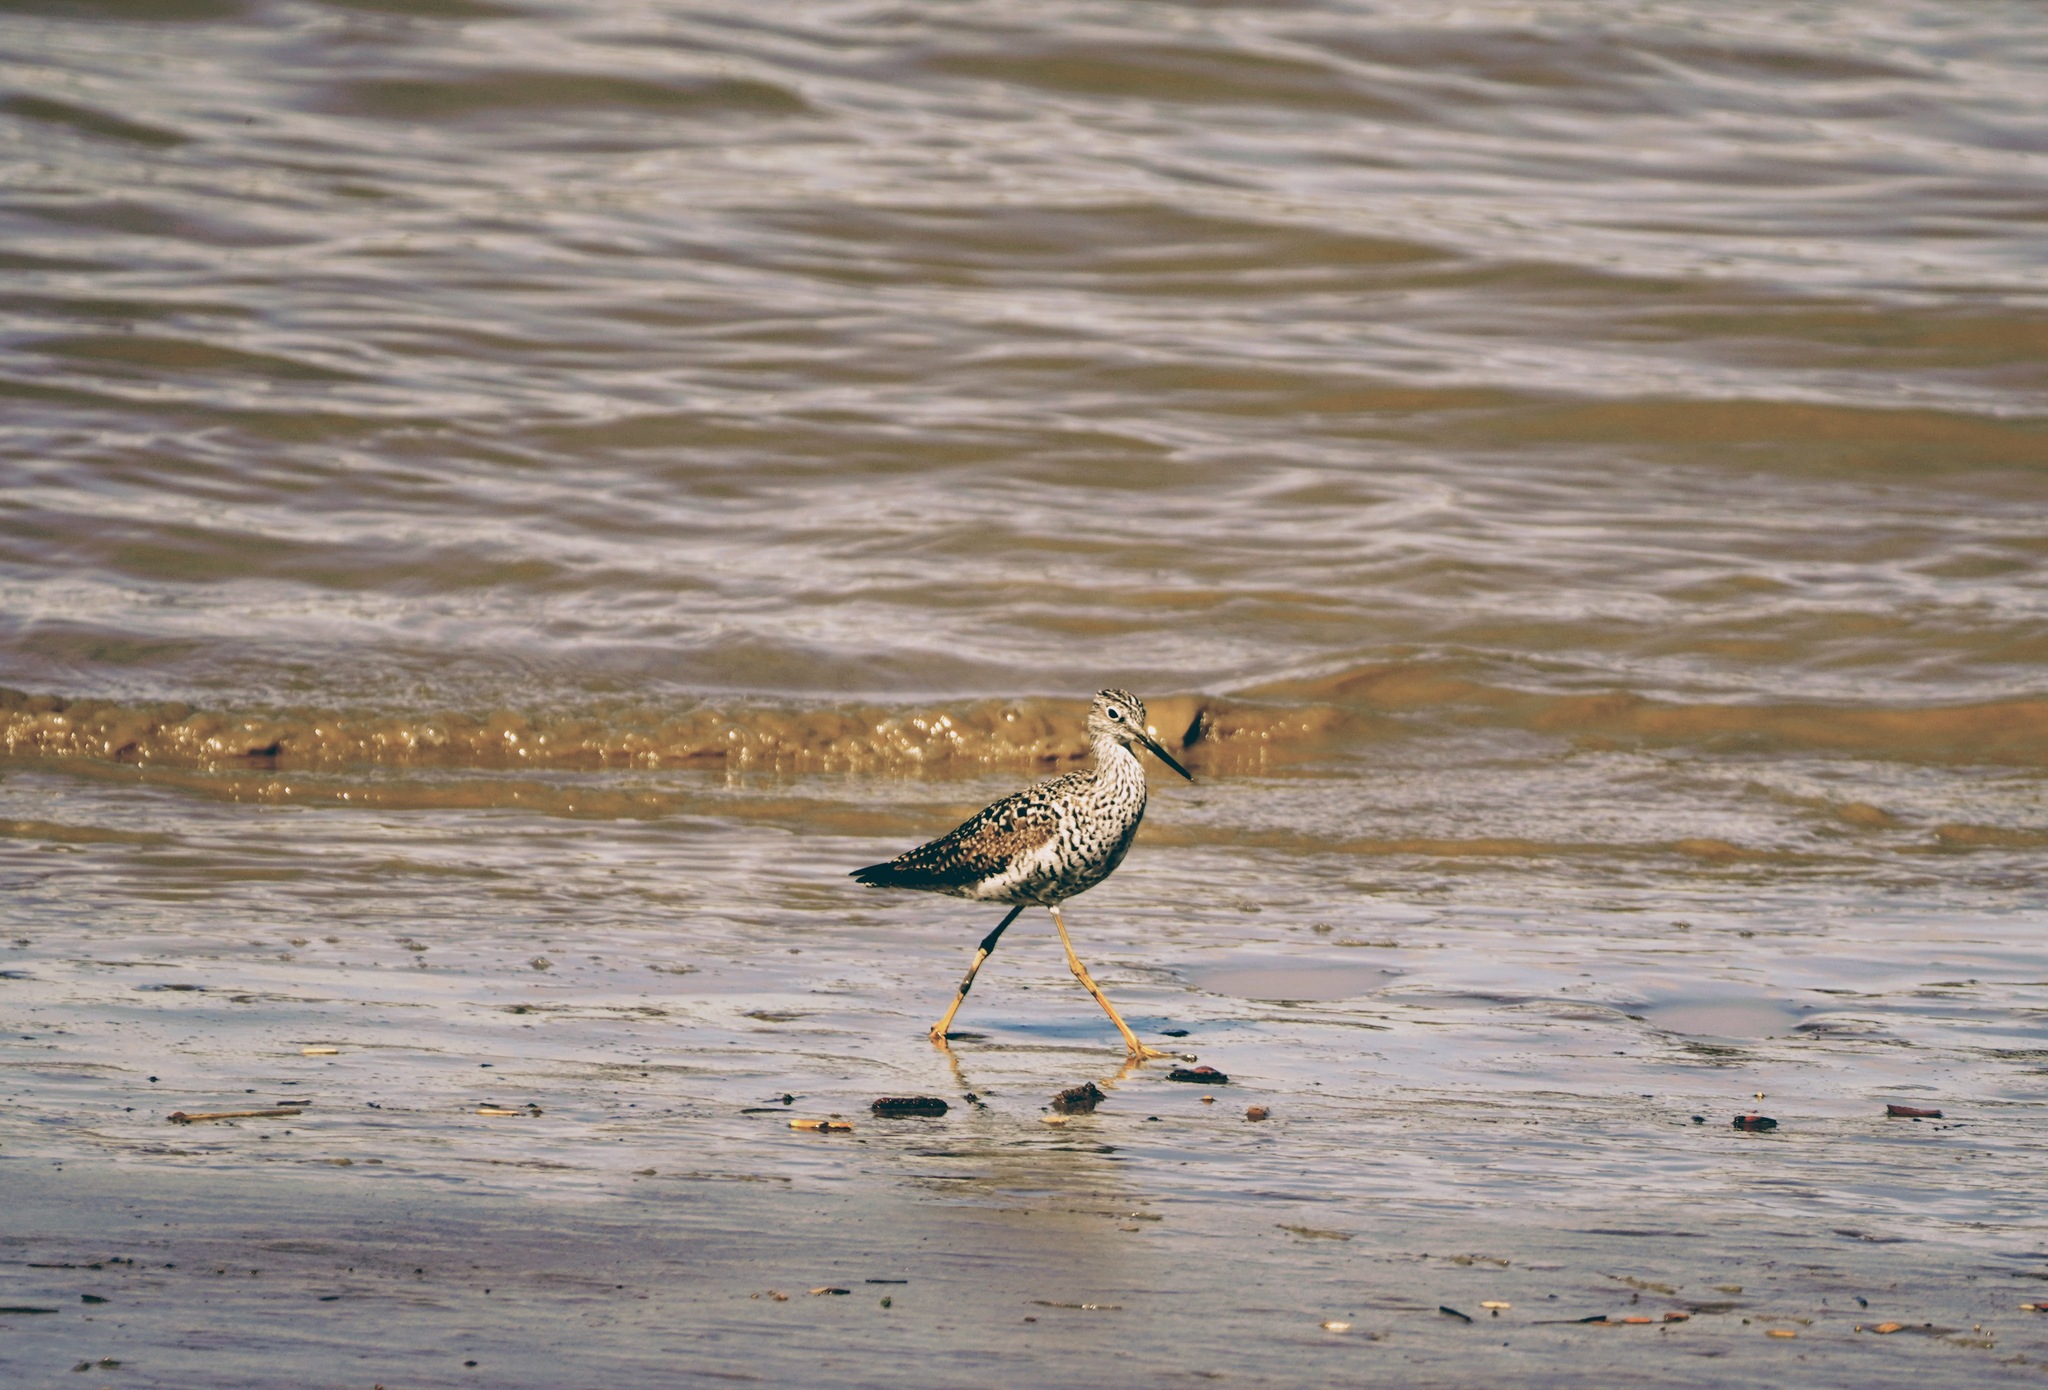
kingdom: Animalia
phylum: Chordata
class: Aves
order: Charadriiformes
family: Scolopacidae
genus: Tringa
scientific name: Tringa flavipes
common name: Lesser yellowlegs
